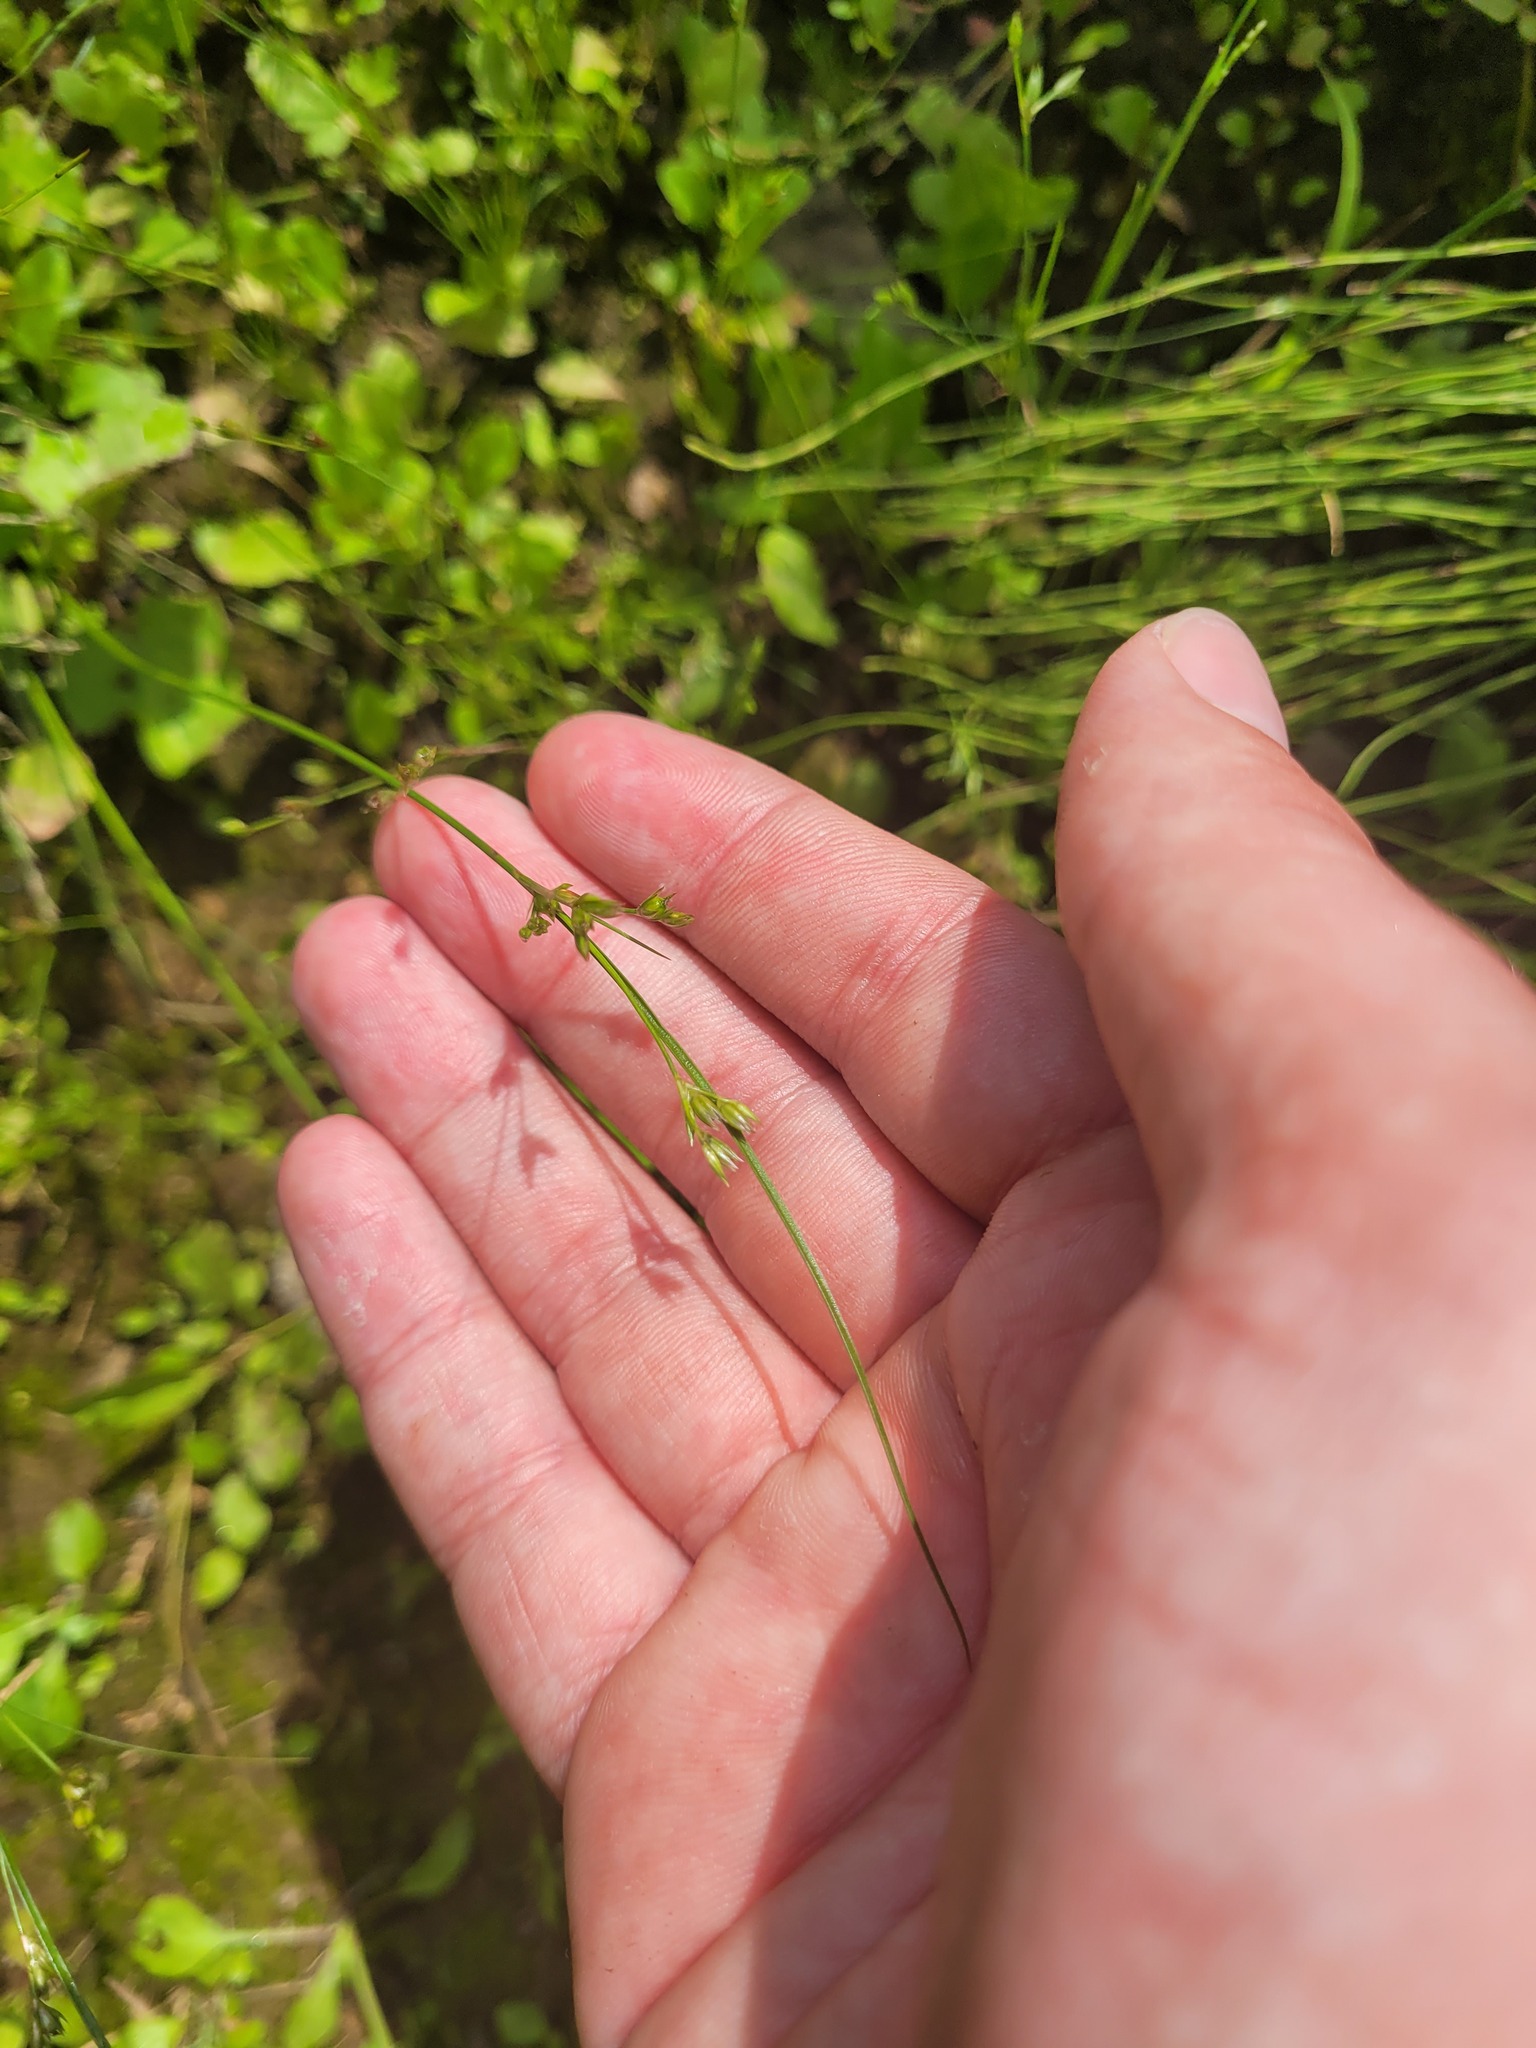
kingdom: Plantae
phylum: Tracheophyta
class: Liliopsida
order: Poales
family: Juncaceae
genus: Juncus
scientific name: Juncus tenuis
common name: Slender rush
